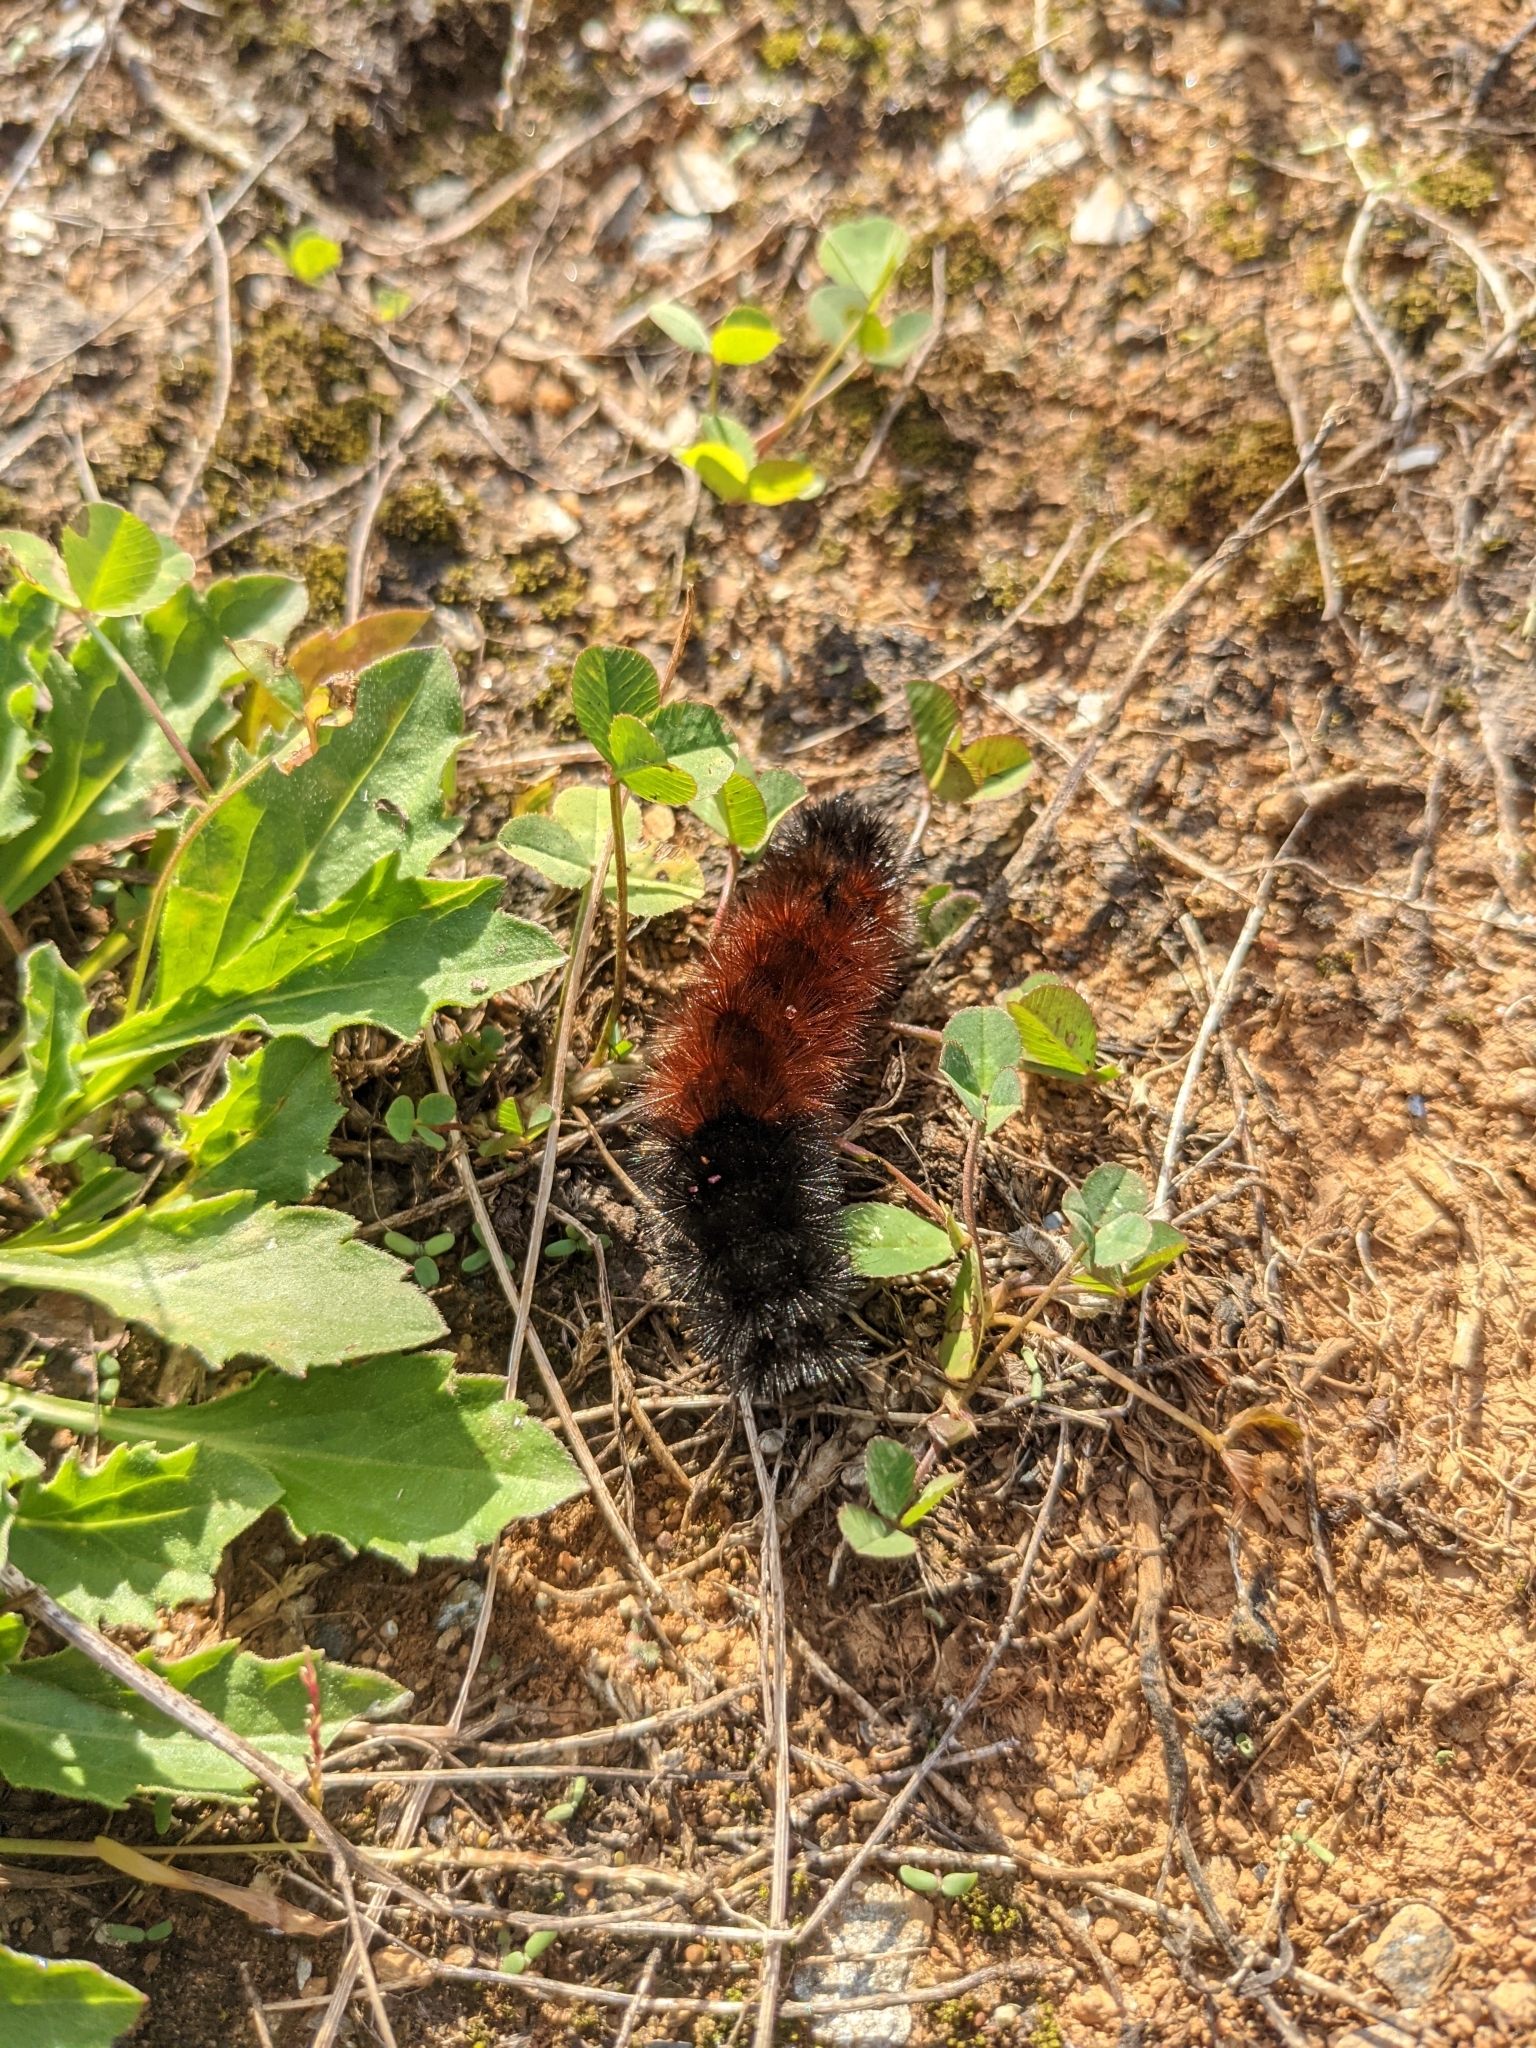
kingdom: Animalia
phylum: Arthropoda
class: Insecta
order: Lepidoptera
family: Erebidae
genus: Pyrrharctia
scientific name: Pyrrharctia isabella
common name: Isabella tiger moth
